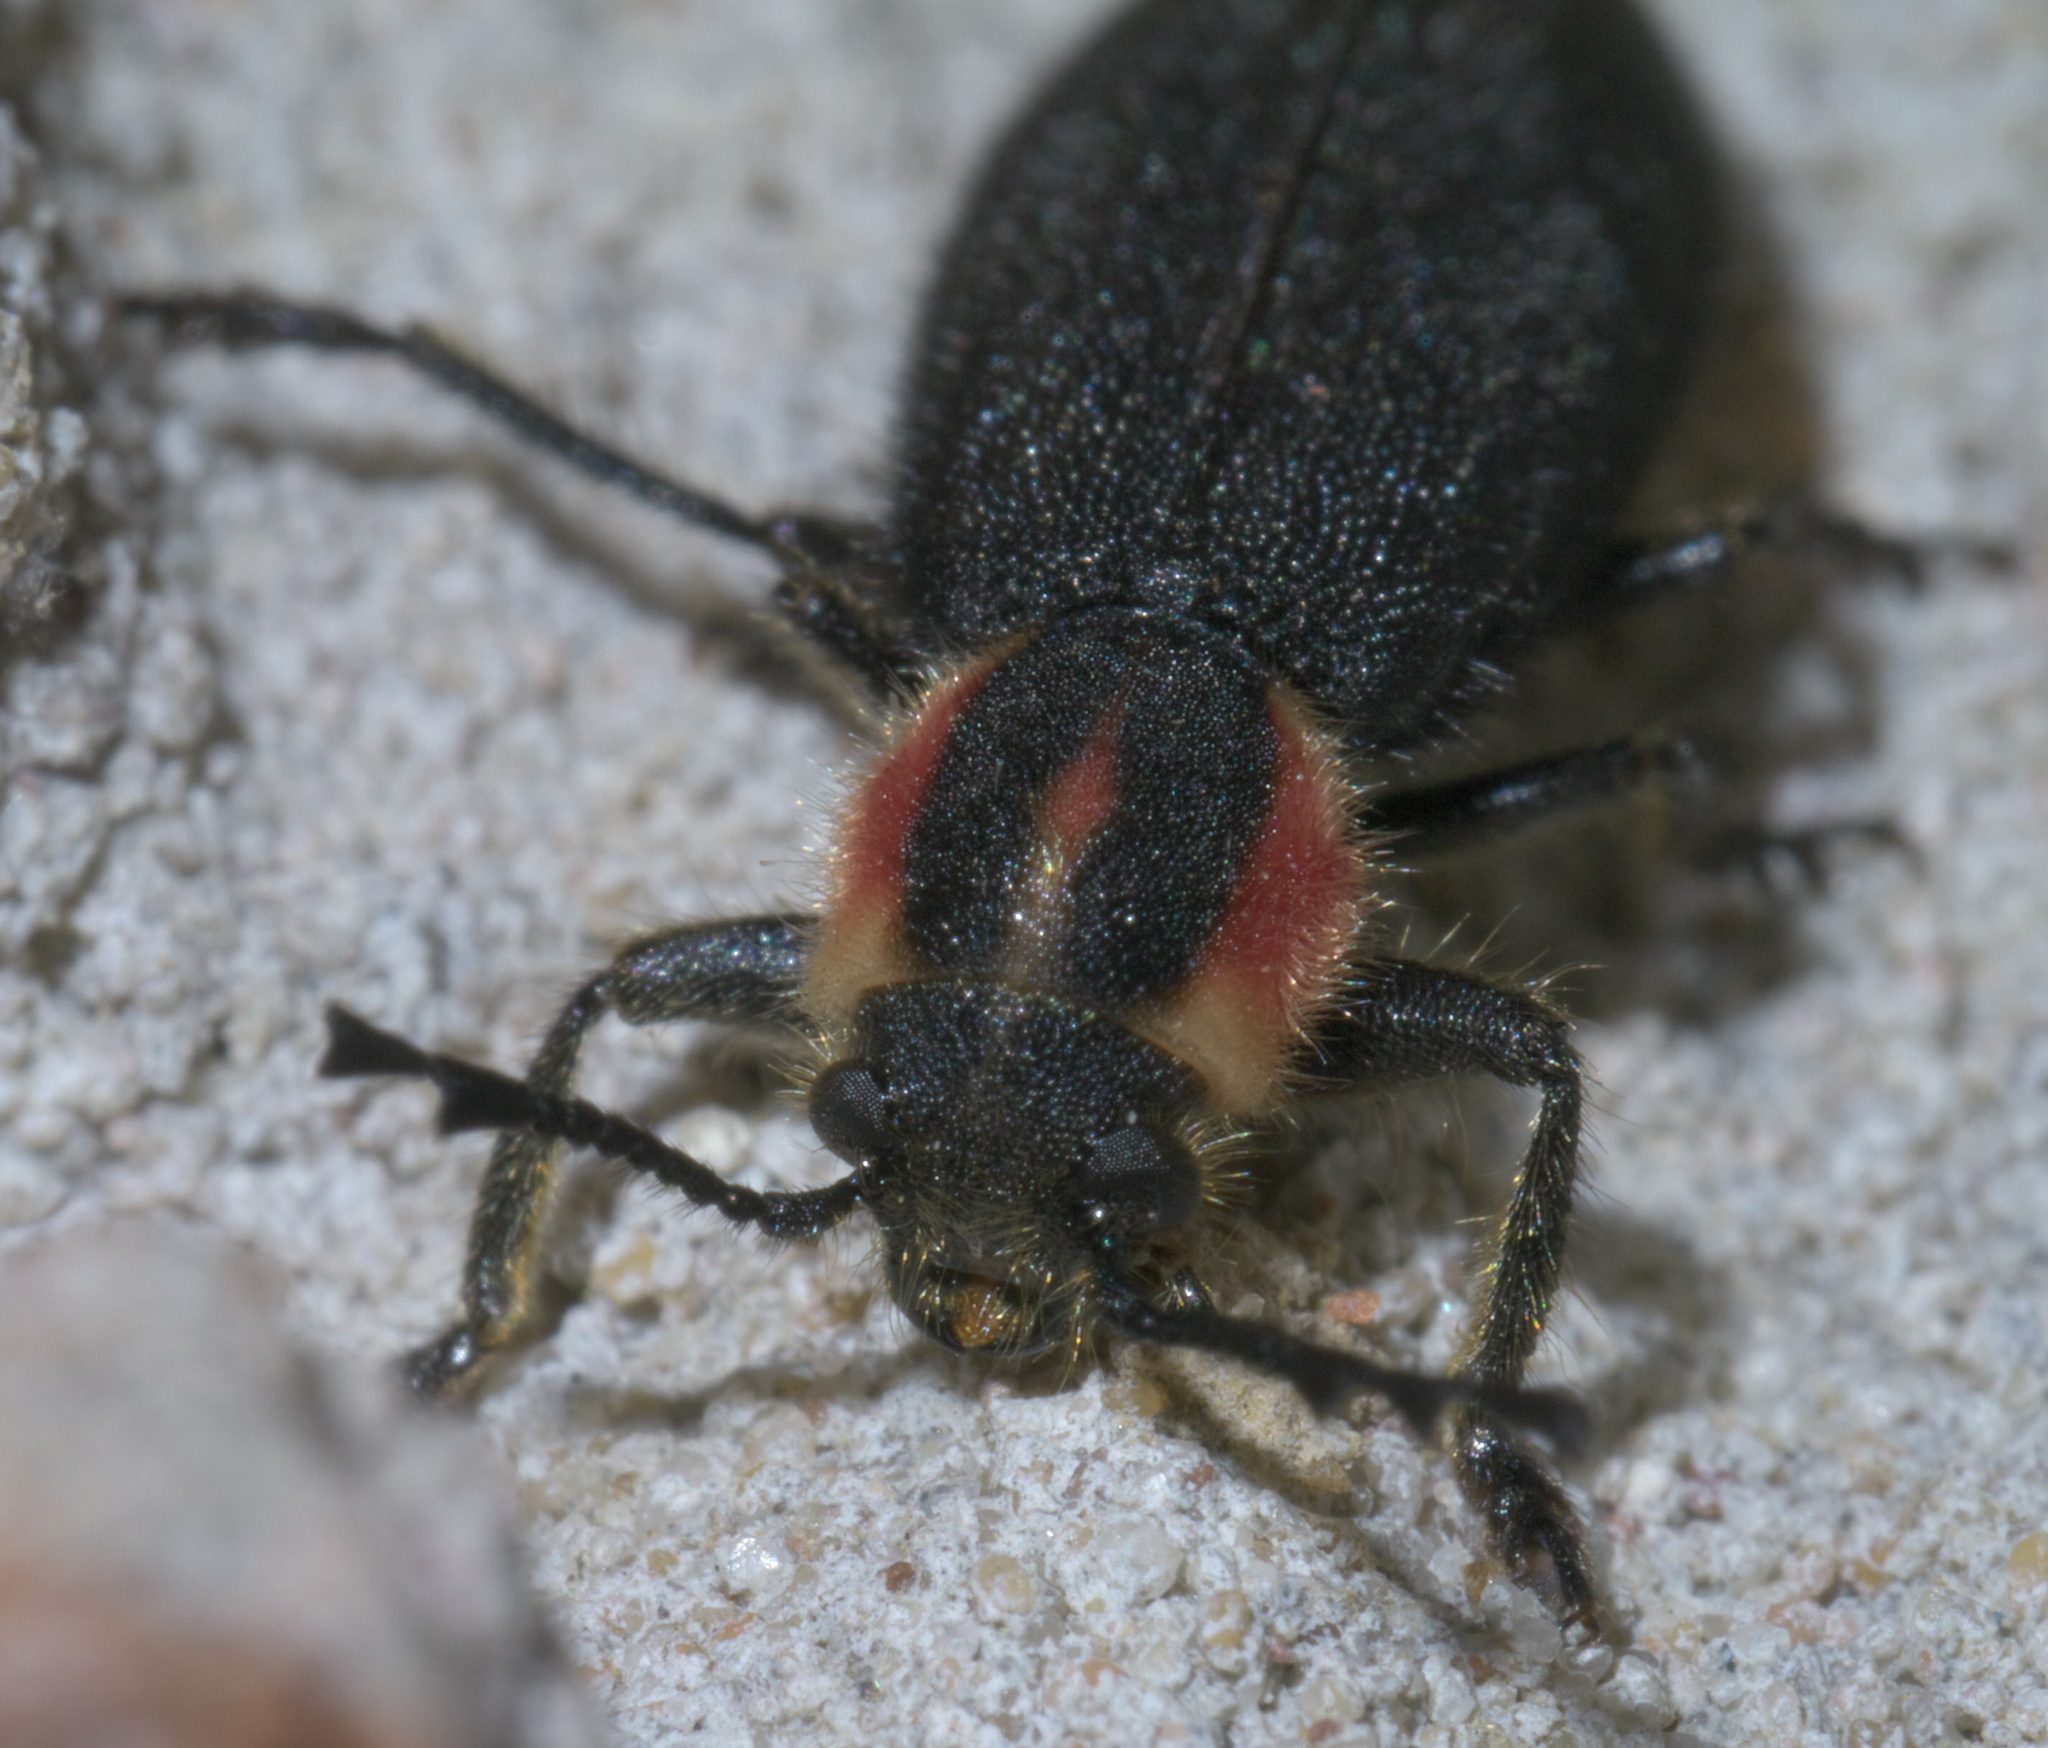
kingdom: Animalia
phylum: Arthropoda
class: Insecta
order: Coleoptera
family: Cleridae
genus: Chariessa
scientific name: Chariessa pilosa
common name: Pilose checkered beetle
